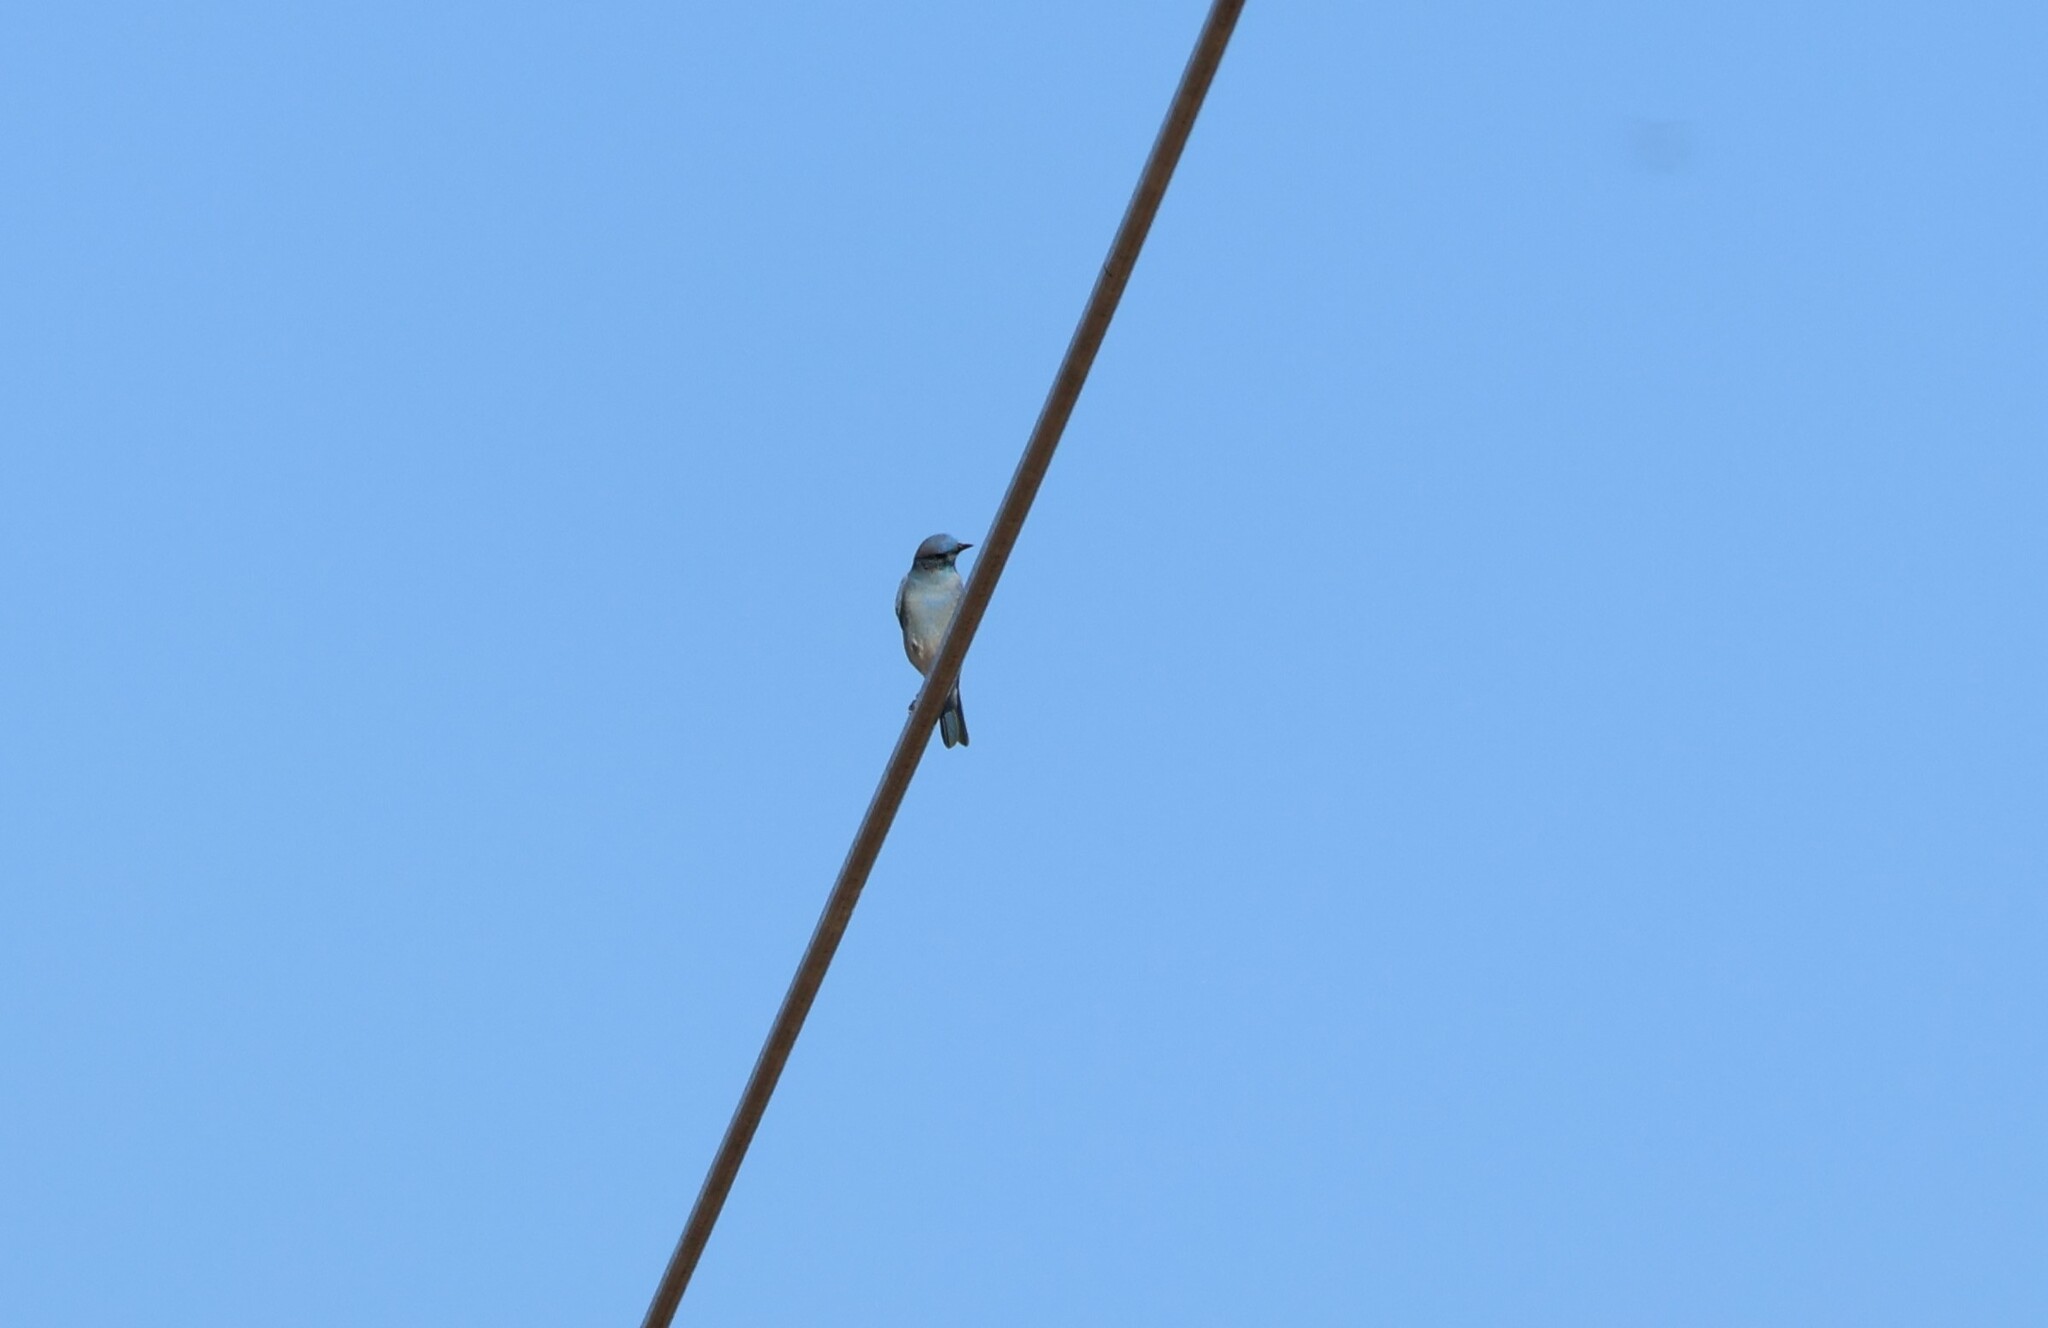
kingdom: Animalia
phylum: Chordata
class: Aves
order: Passeriformes
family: Turdidae
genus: Sialia
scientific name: Sialia currucoides
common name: Mountain bluebird
